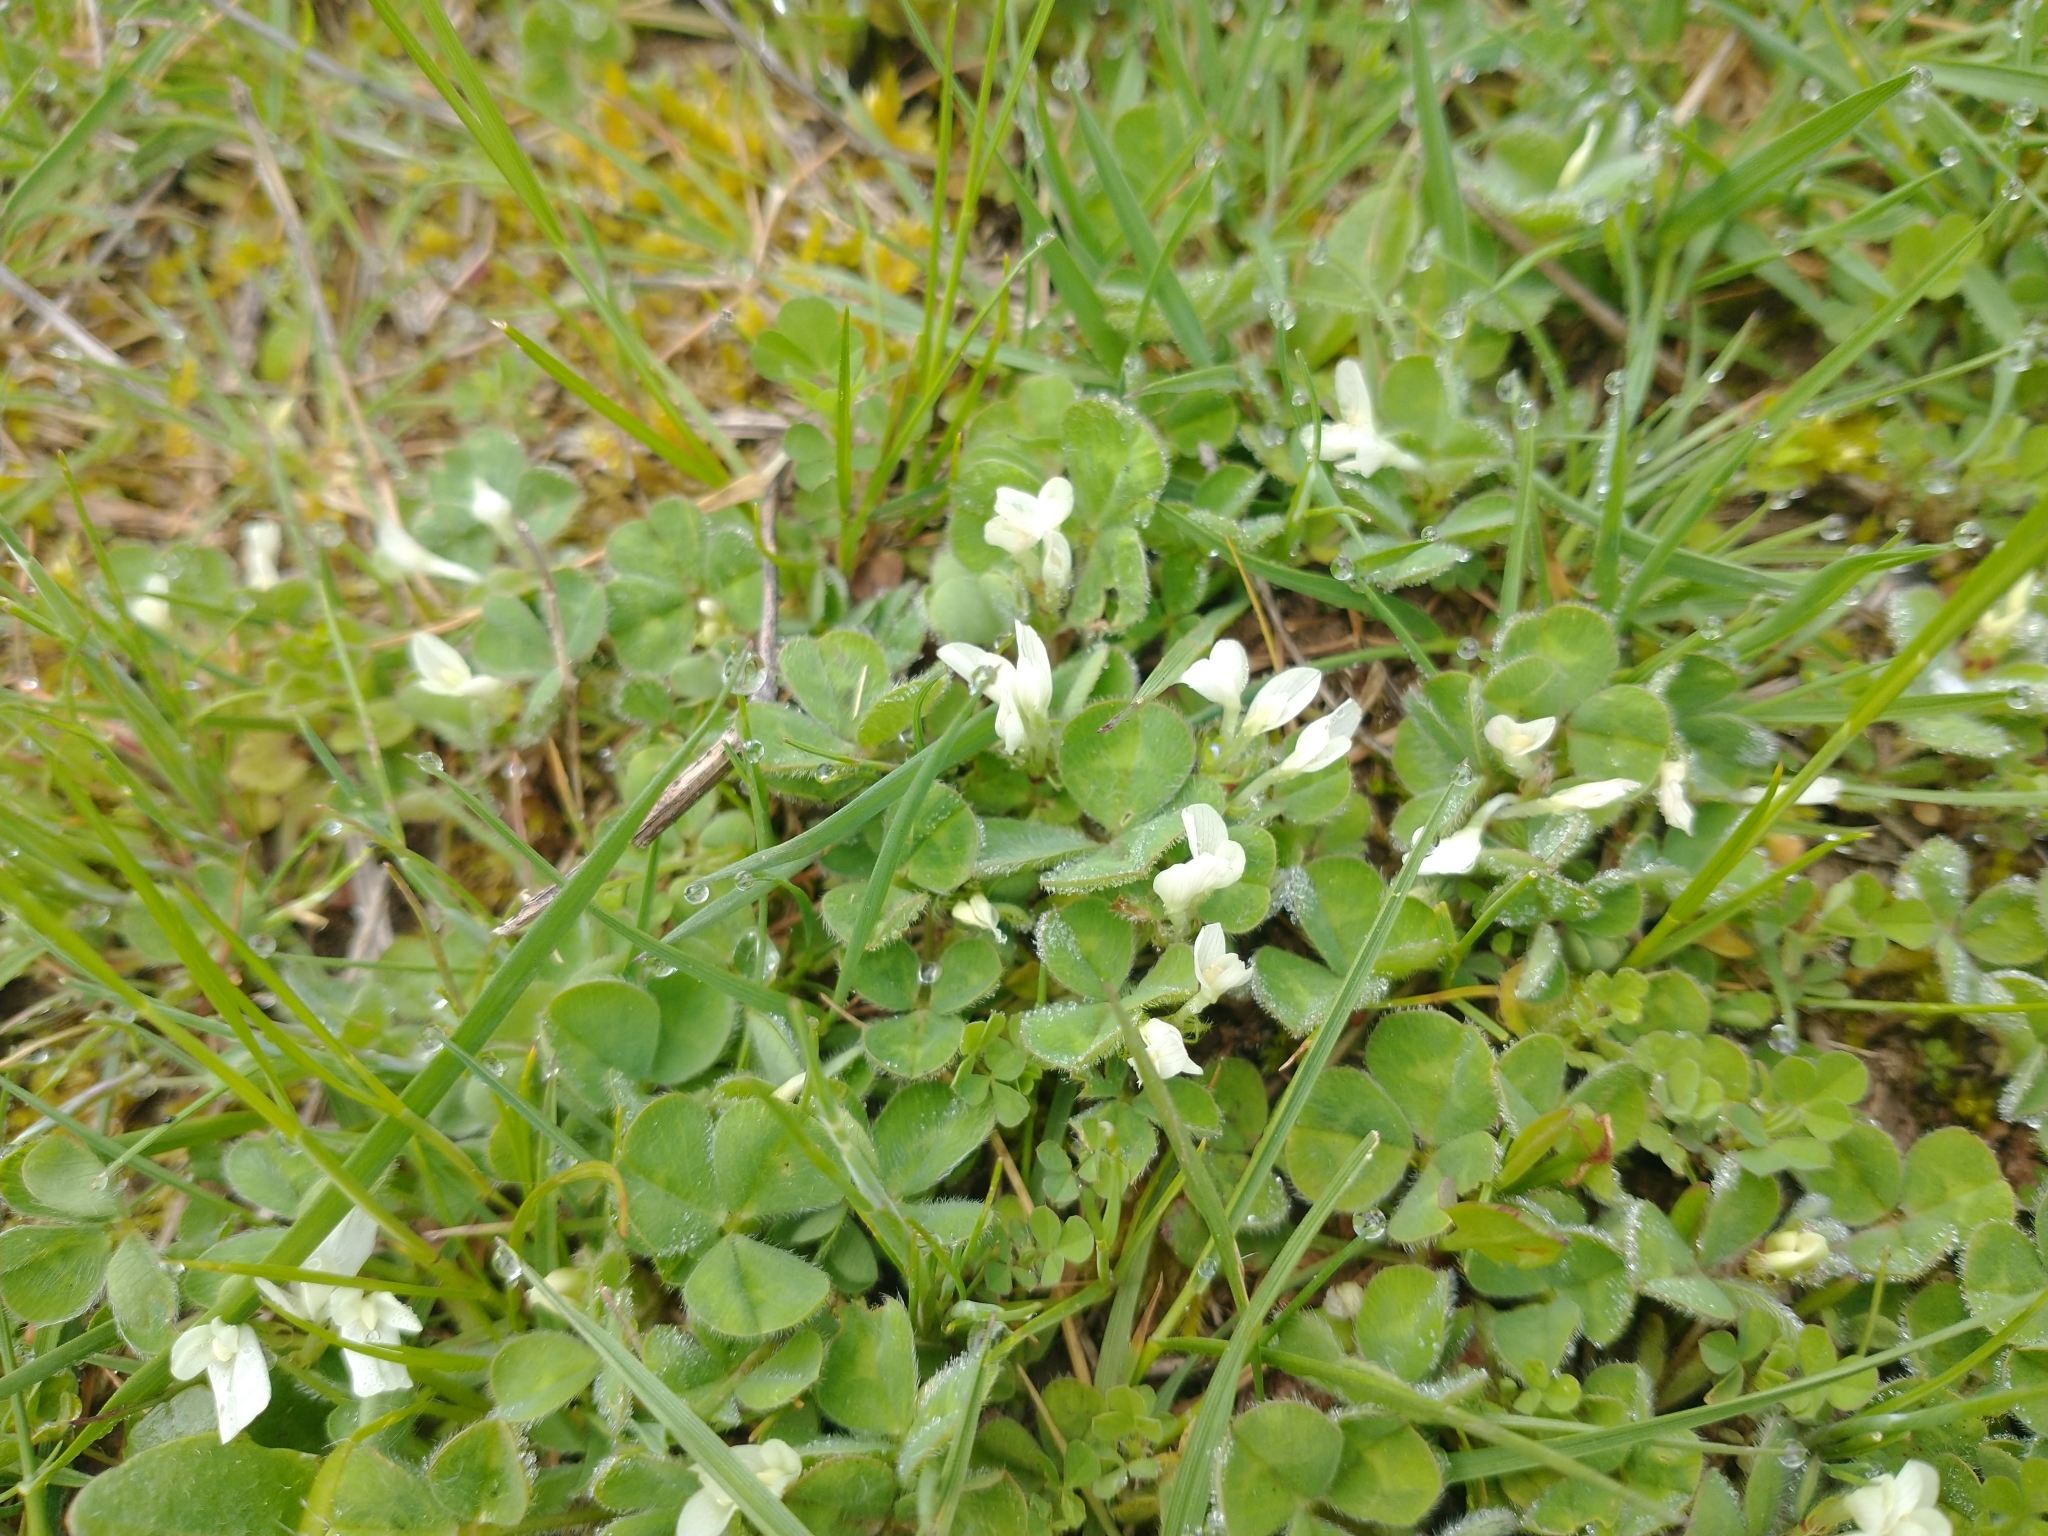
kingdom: Plantae
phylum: Tracheophyta
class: Magnoliopsida
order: Fabales
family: Fabaceae
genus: Trifolium
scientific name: Trifolium subterraneum
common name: Subterranean clover
